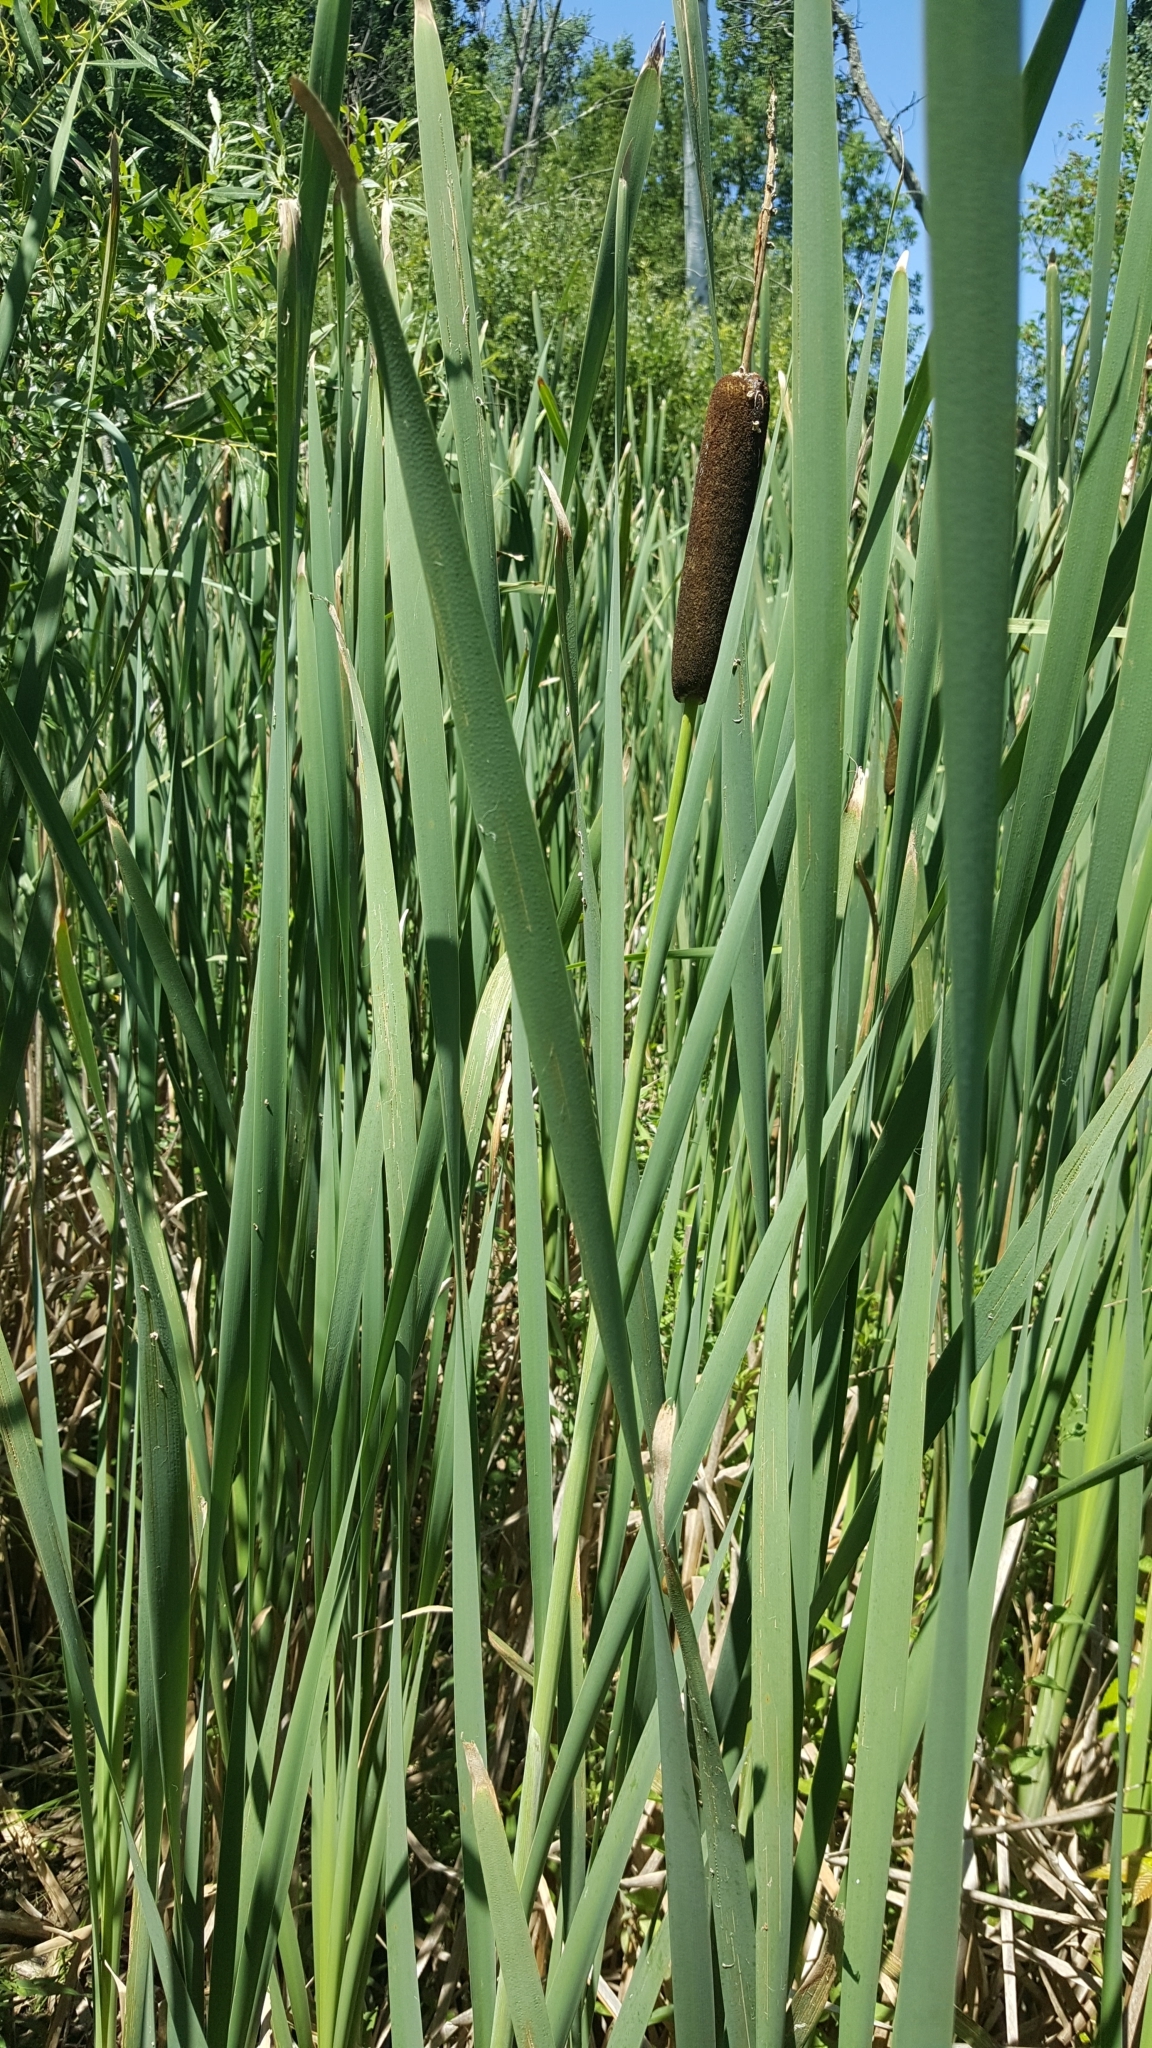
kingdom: Plantae
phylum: Tracheophyta
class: Liliopsida
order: Poales
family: Typhaceae
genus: Typha
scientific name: Typha latifolia
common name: Broadleaf cattail
